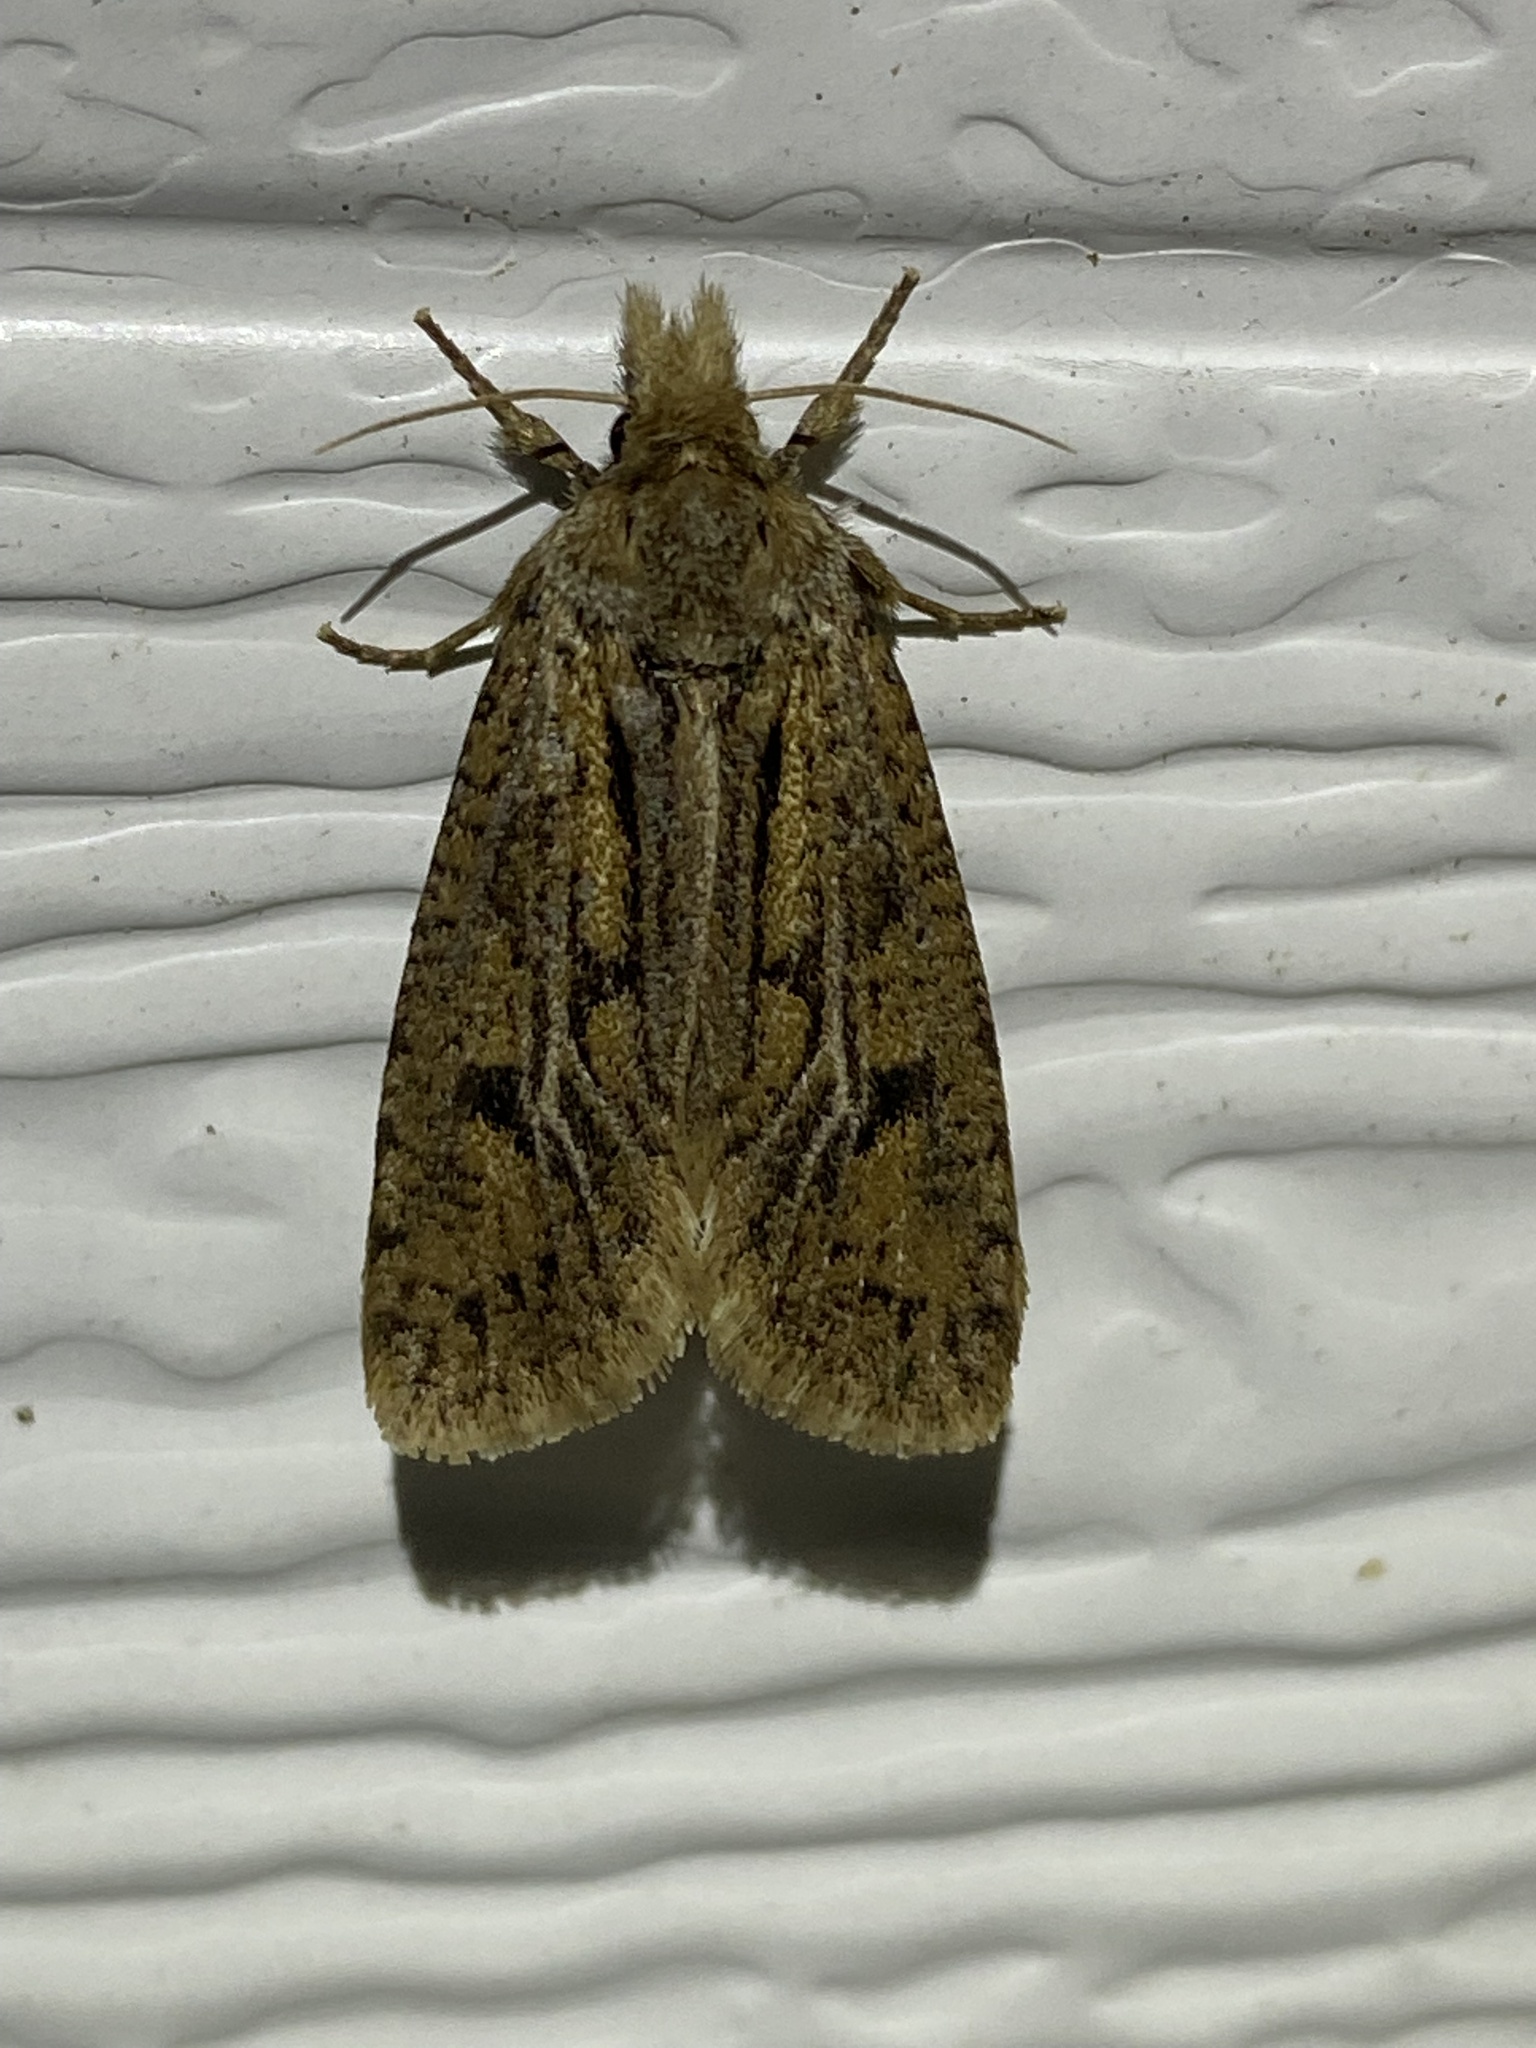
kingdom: Animalia
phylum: Arthropoda
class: Insecta
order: Lepidoptera
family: Tineidae
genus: Acrolophus
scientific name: Acrolophus popeanella
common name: Clemens' grass tubeworm moth
